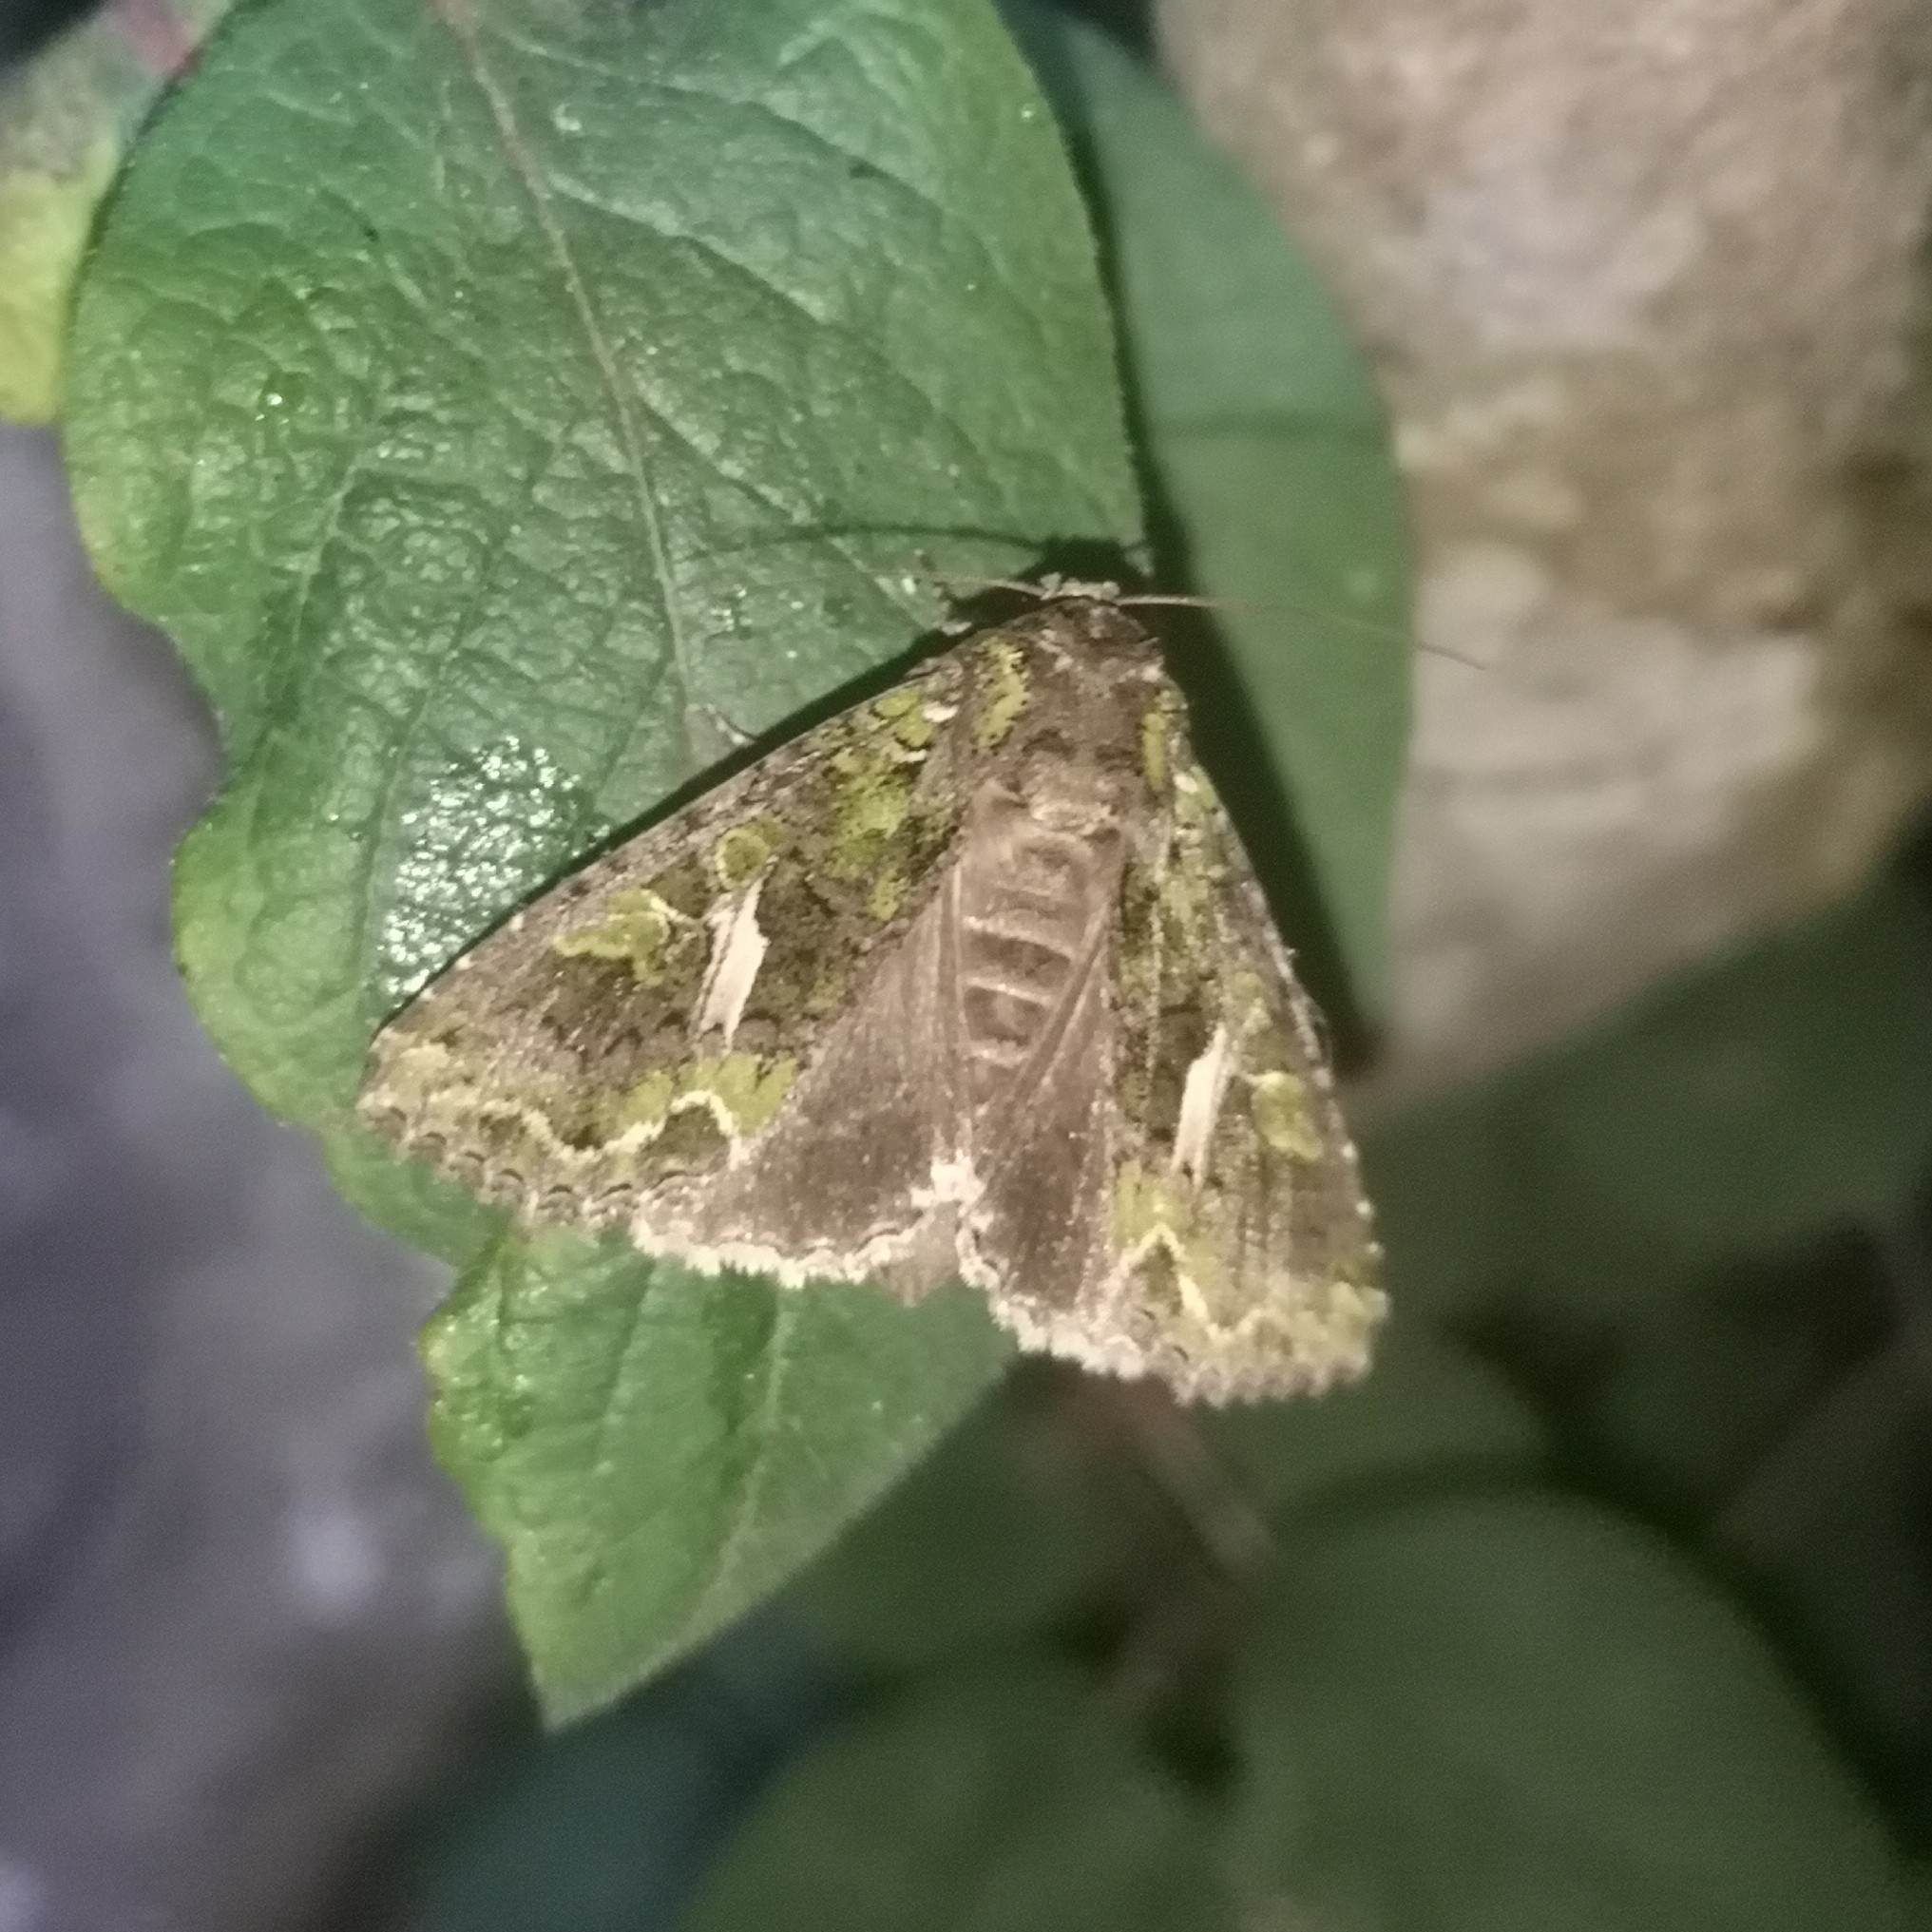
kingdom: Animalia
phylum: Arthropoda
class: Insecta
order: Lepidoptera
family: Noctuidae
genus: Trachea
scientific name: Trachea atriplicis
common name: Orache moth
